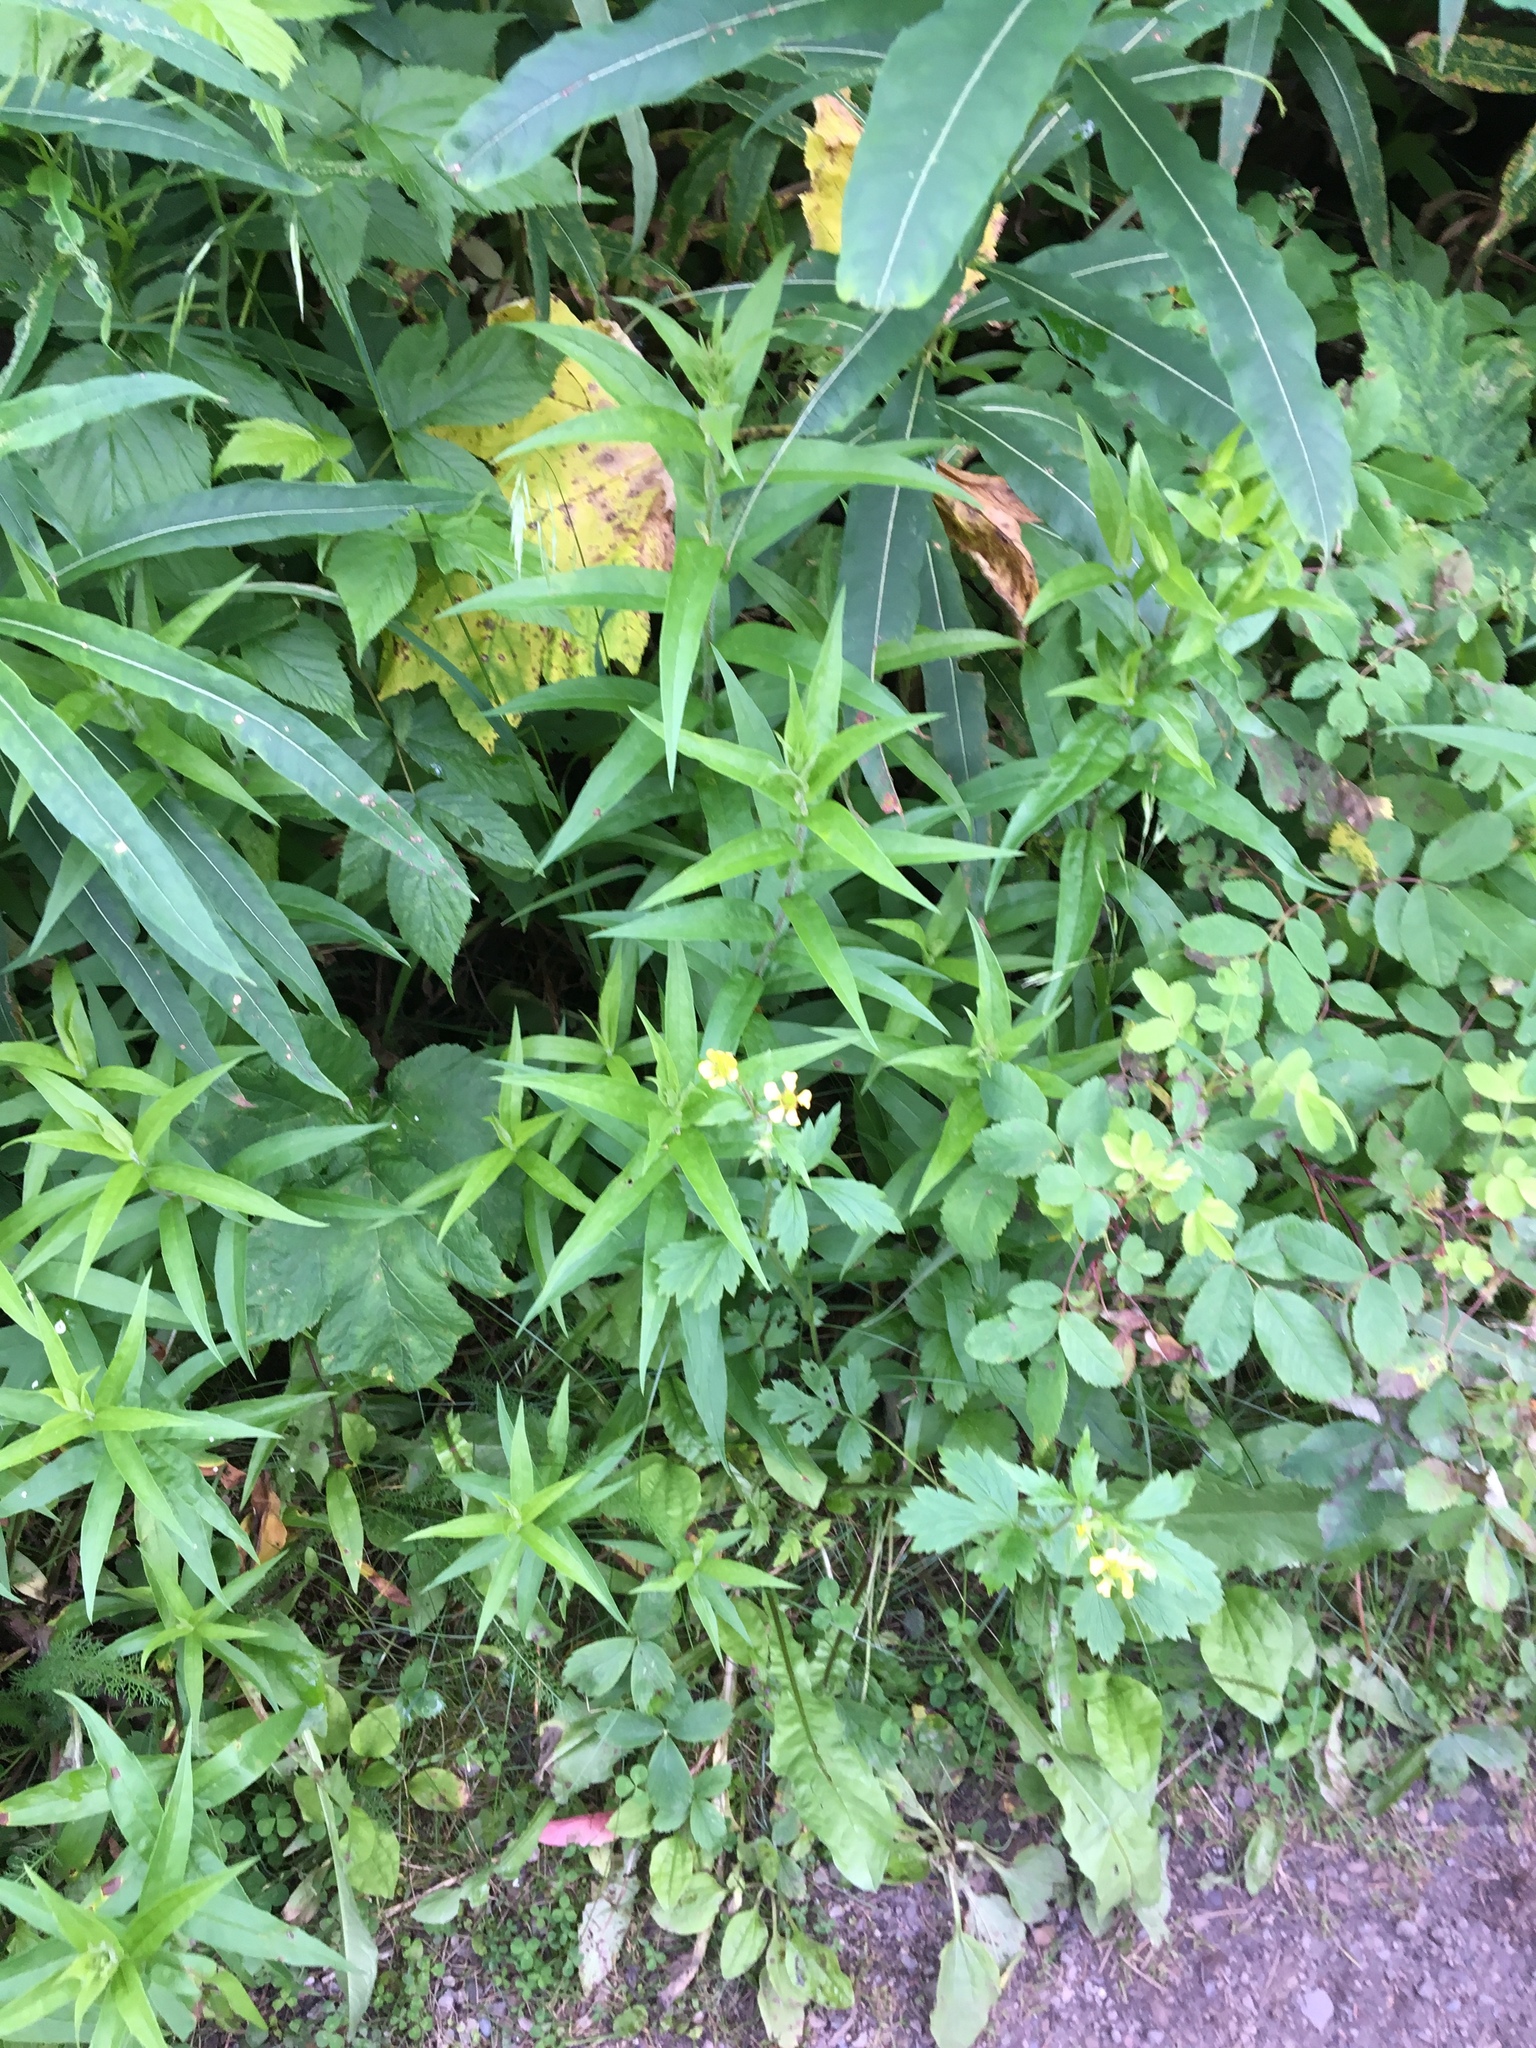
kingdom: Plantae
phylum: Tracheophyta
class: Magnoliopsida
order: Rosales
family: Rosaceae
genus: Geum
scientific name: Geum aleppicum
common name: Yellow avens
